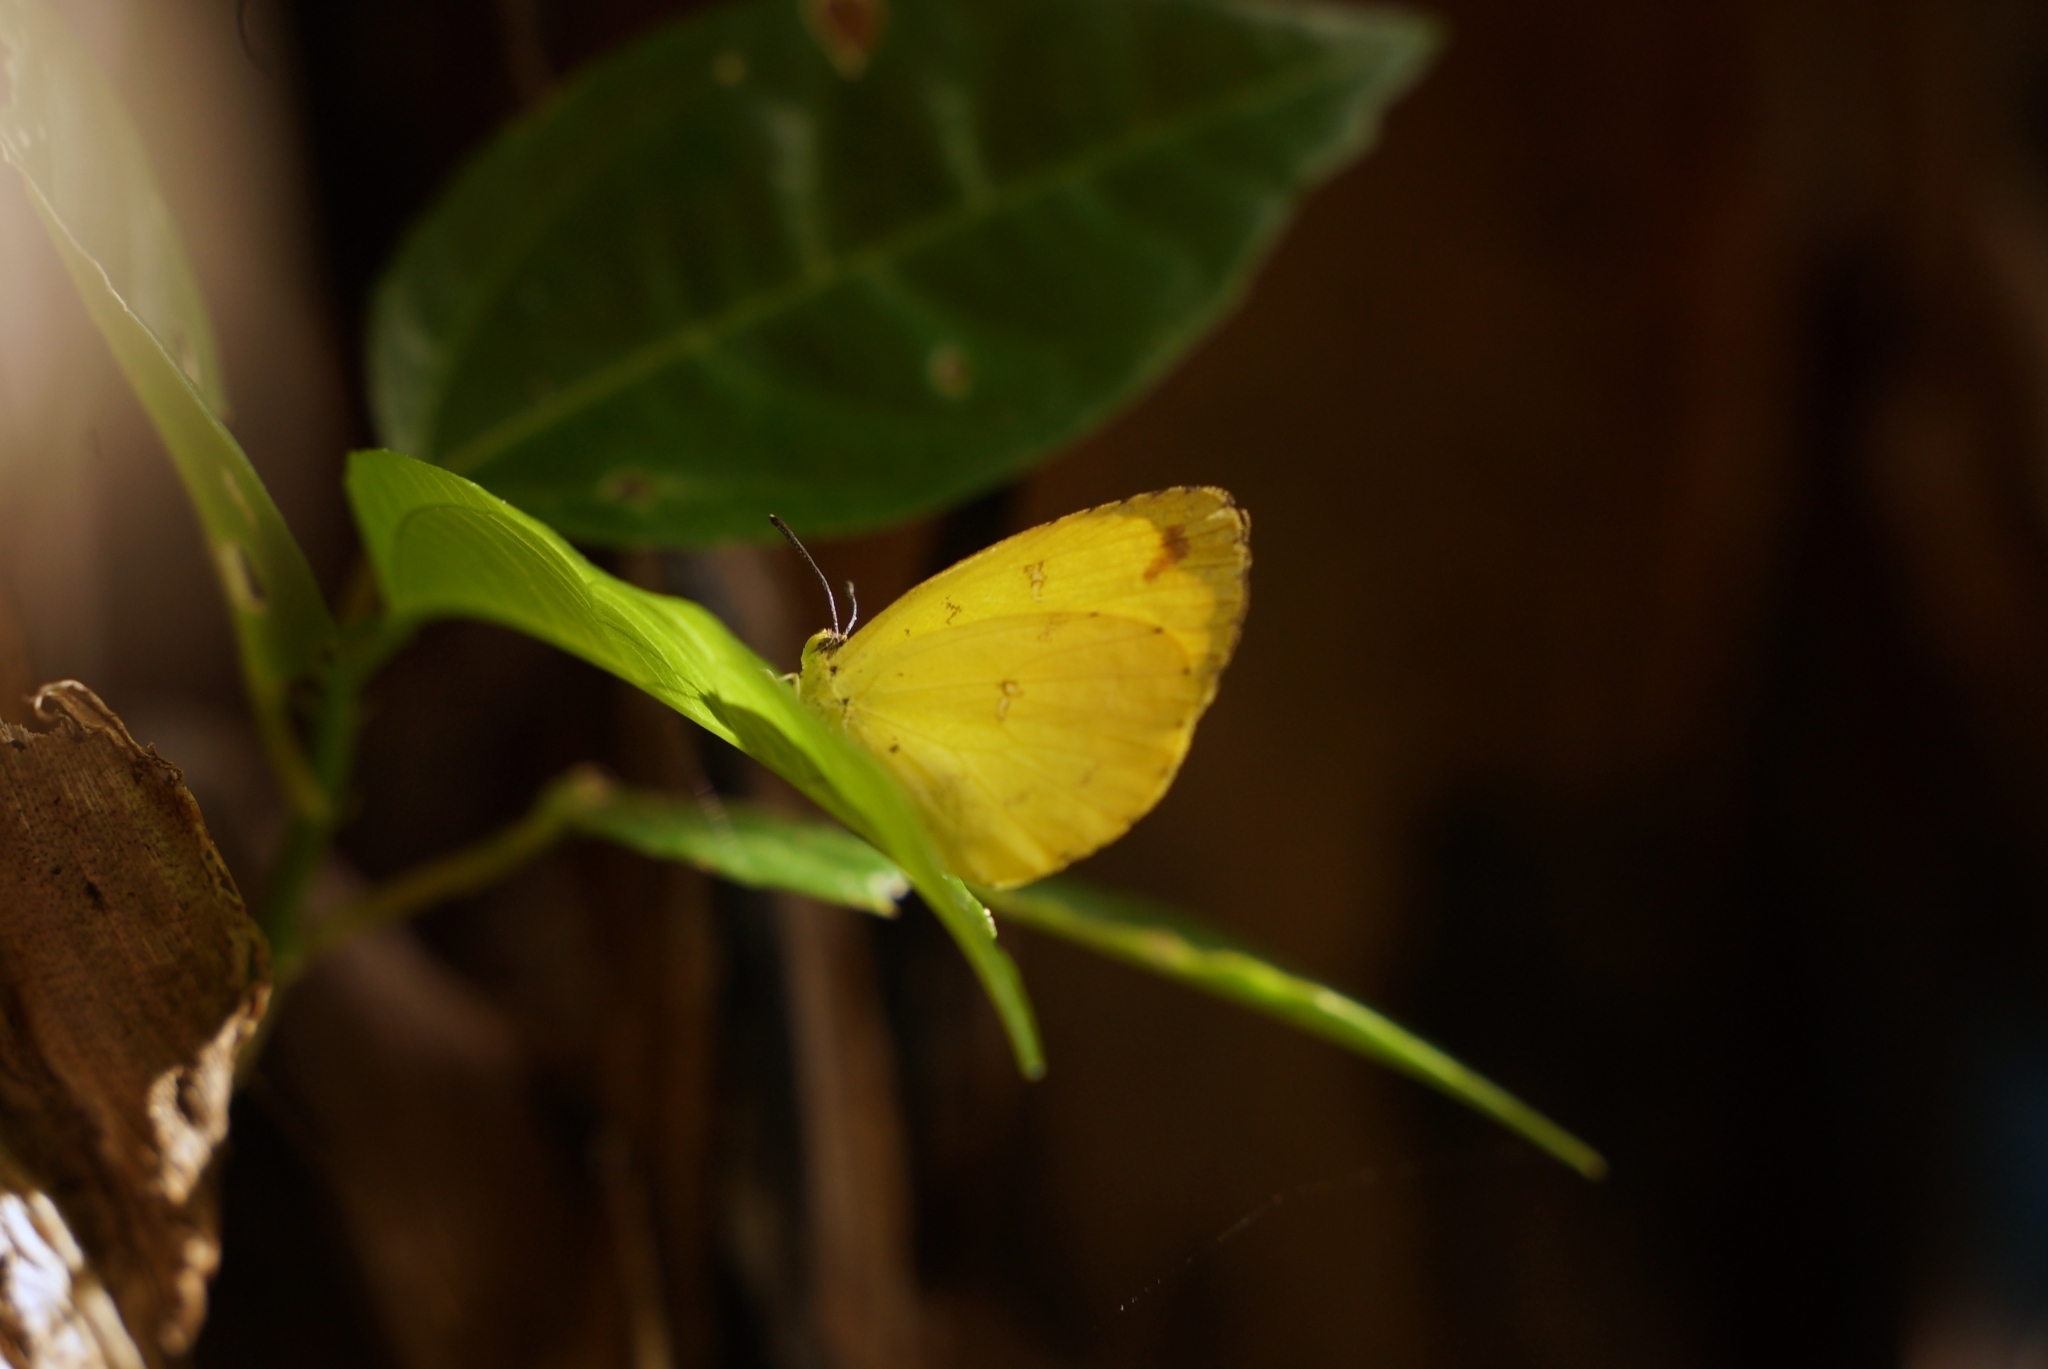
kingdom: Animalia
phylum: Arthropoda
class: Insecta
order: Lepidoptera
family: Pieridae
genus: Eurema
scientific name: Eurema floricola
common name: Malagasy grass yellow
